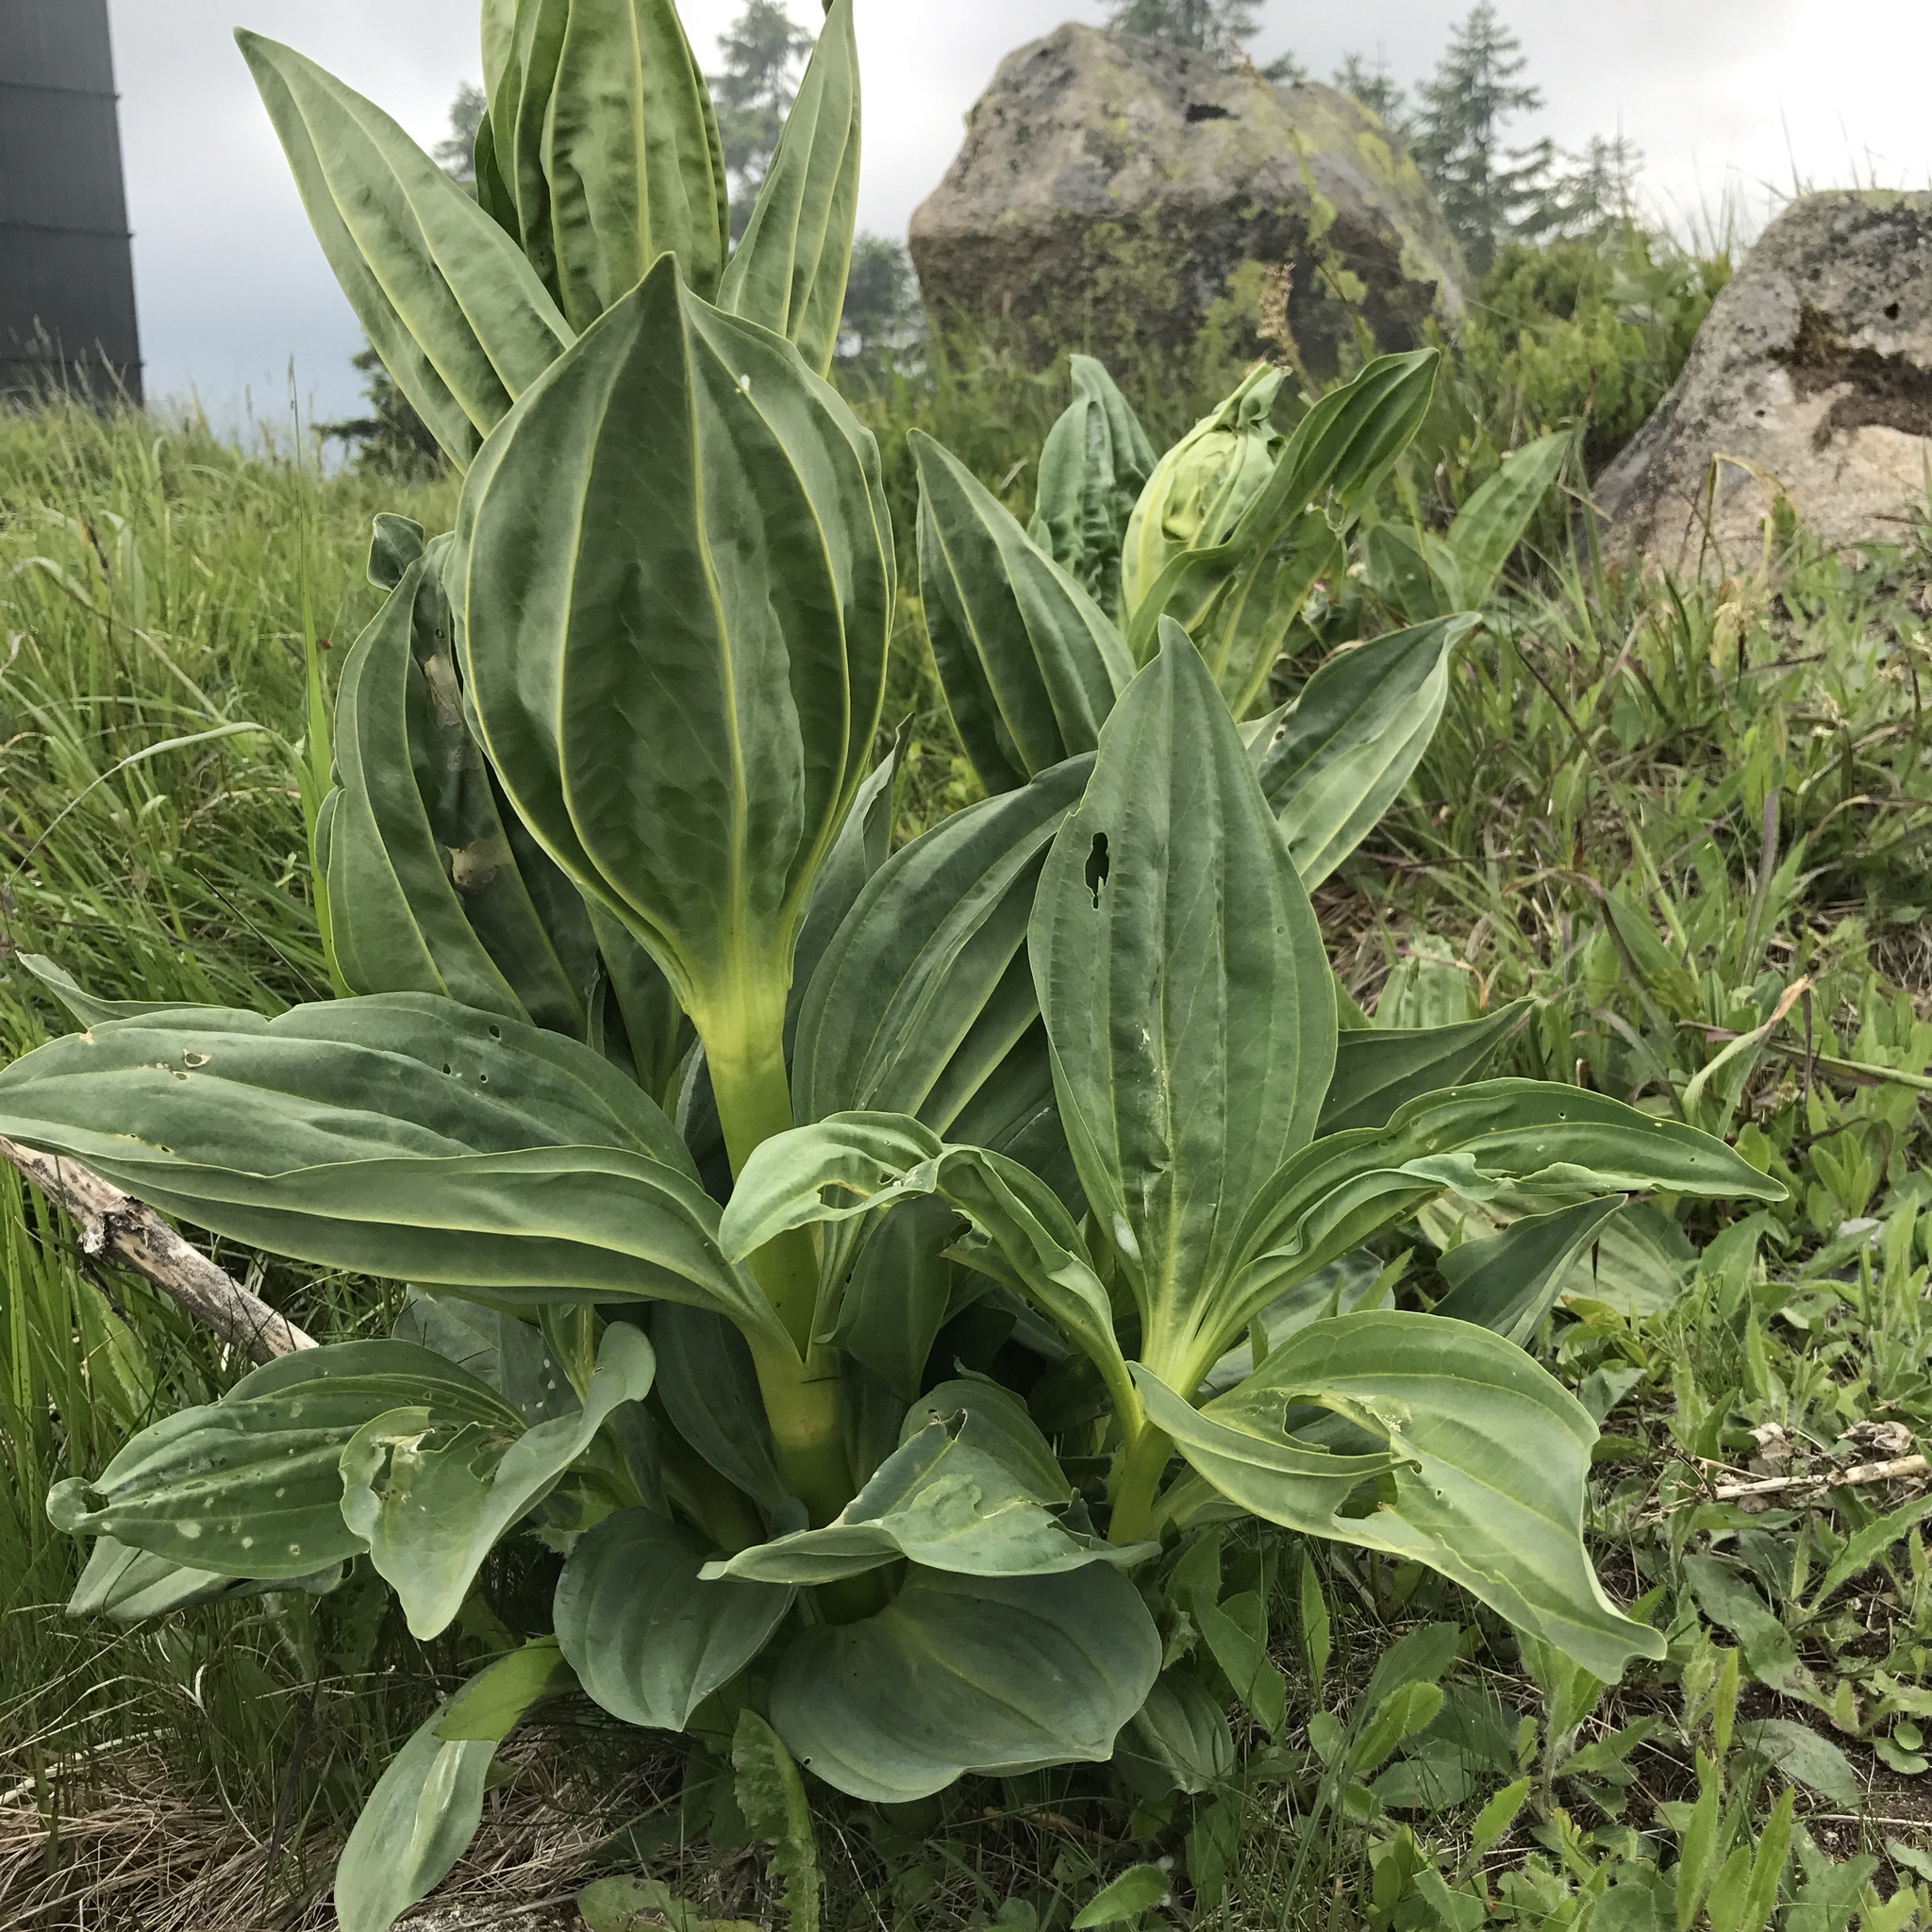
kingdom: Plantae
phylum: Tracheophyta
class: Magnoliopsida
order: Gentianales
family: Gentianaceae
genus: Gentiana
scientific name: Gentiana lutea
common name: Great yellow gentian
